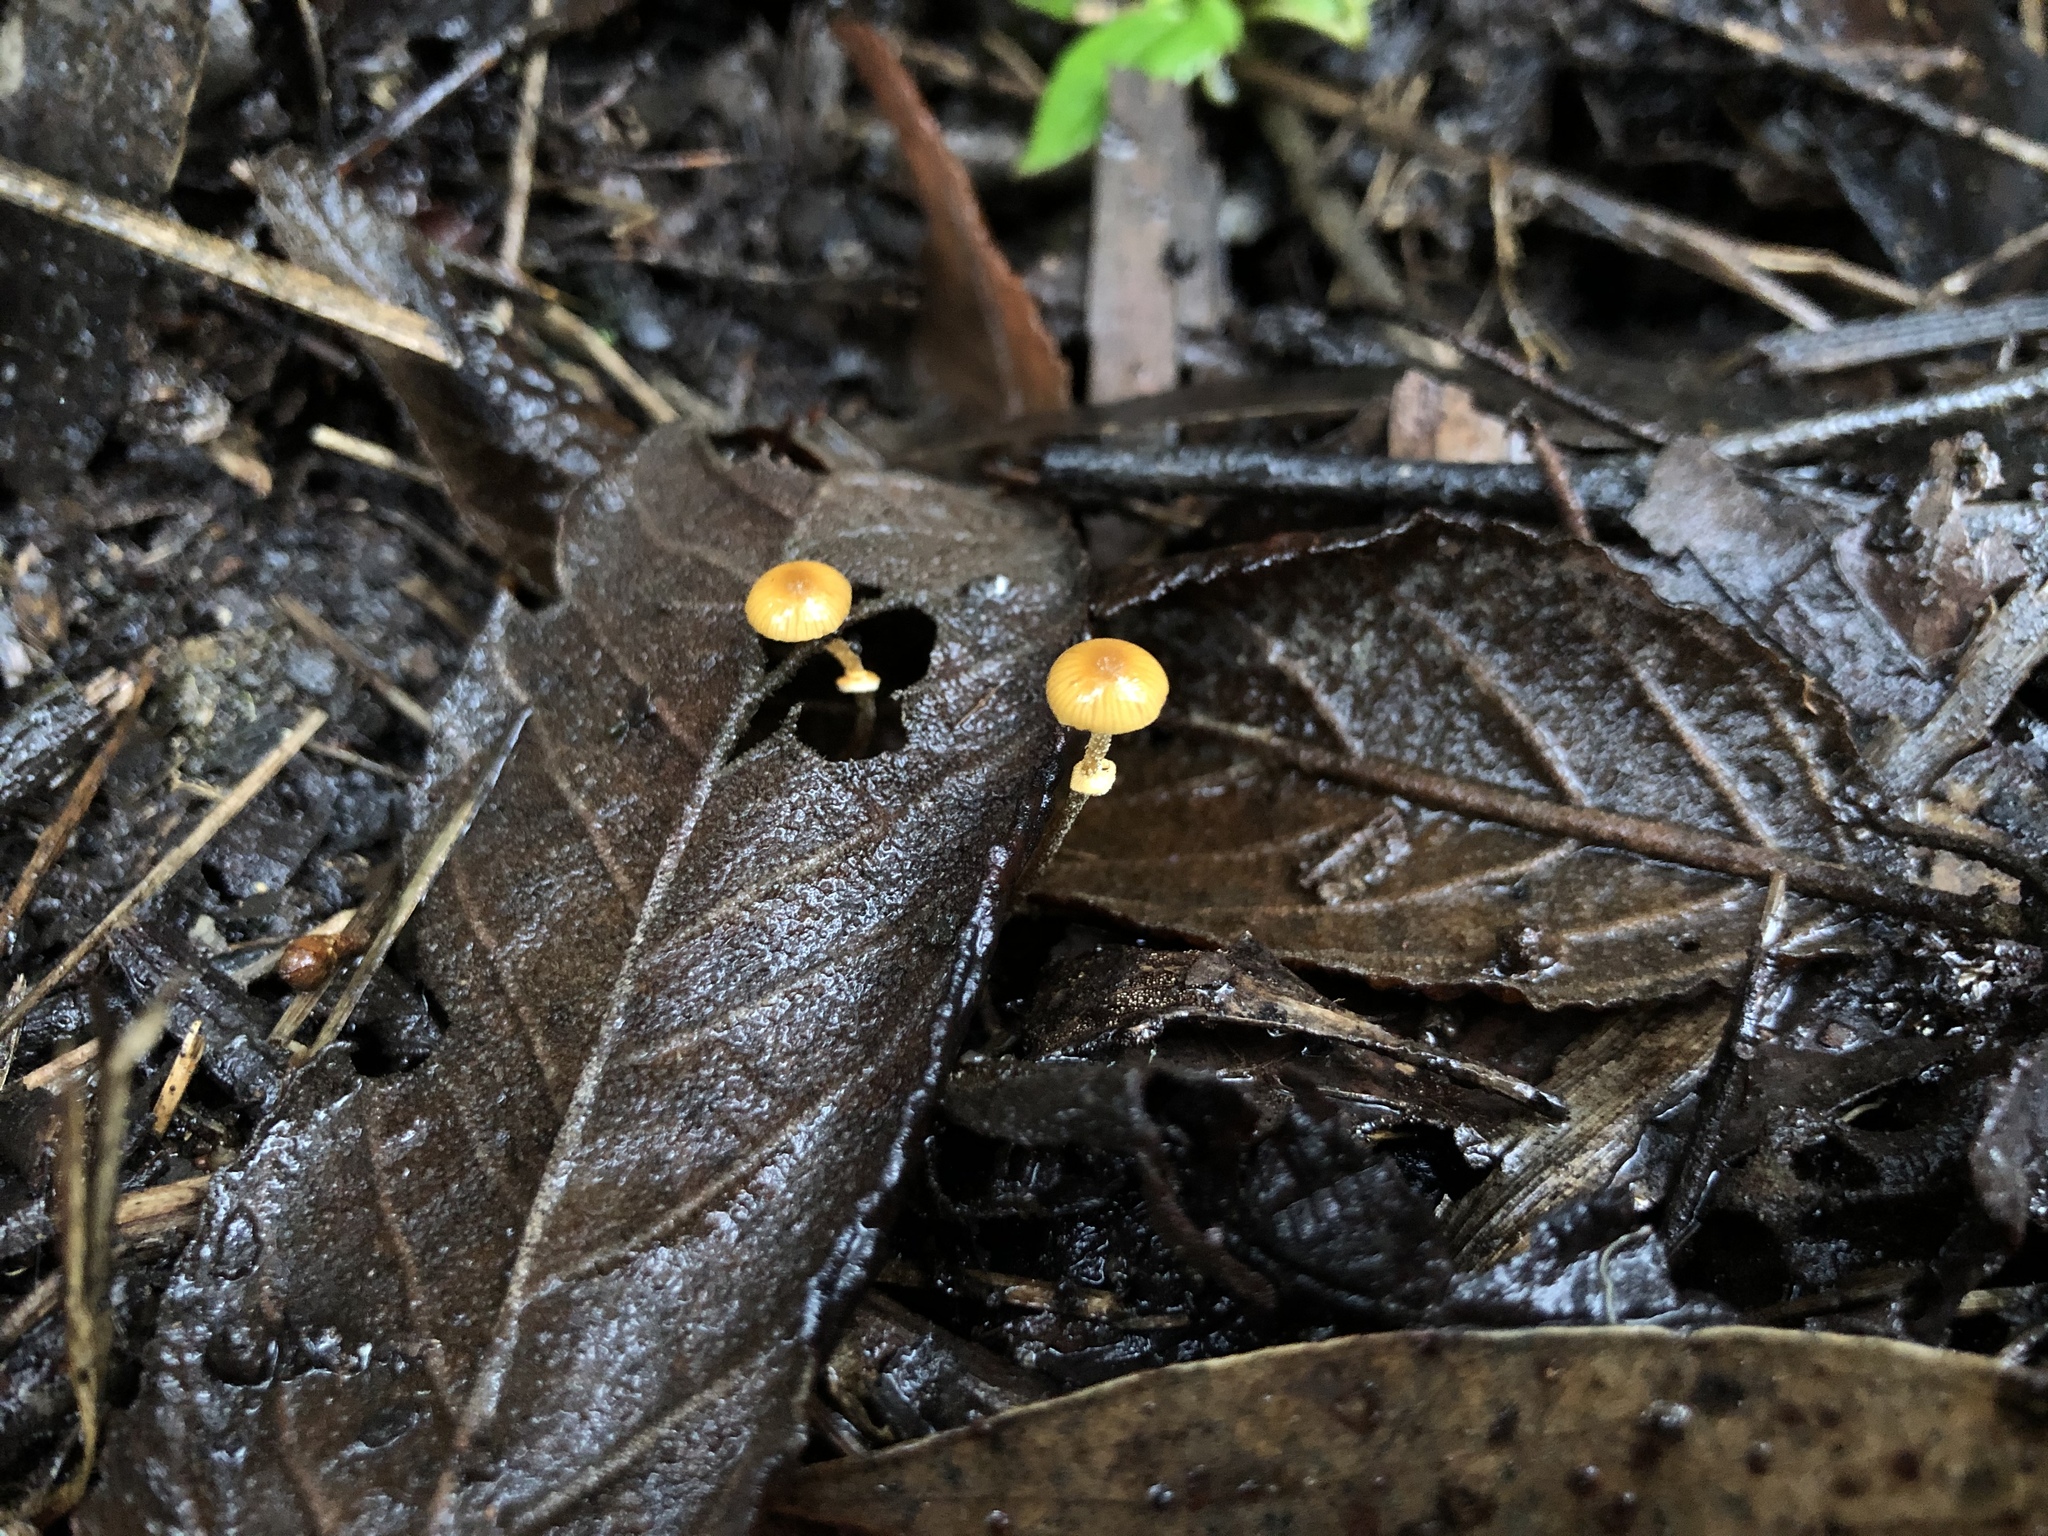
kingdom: Fungi
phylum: Basidiomycota
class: Agaricomycetes
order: Agaricales
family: Bolbitiaceae
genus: Conocybe
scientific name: Conocybe filaris
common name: Fool's conecap
